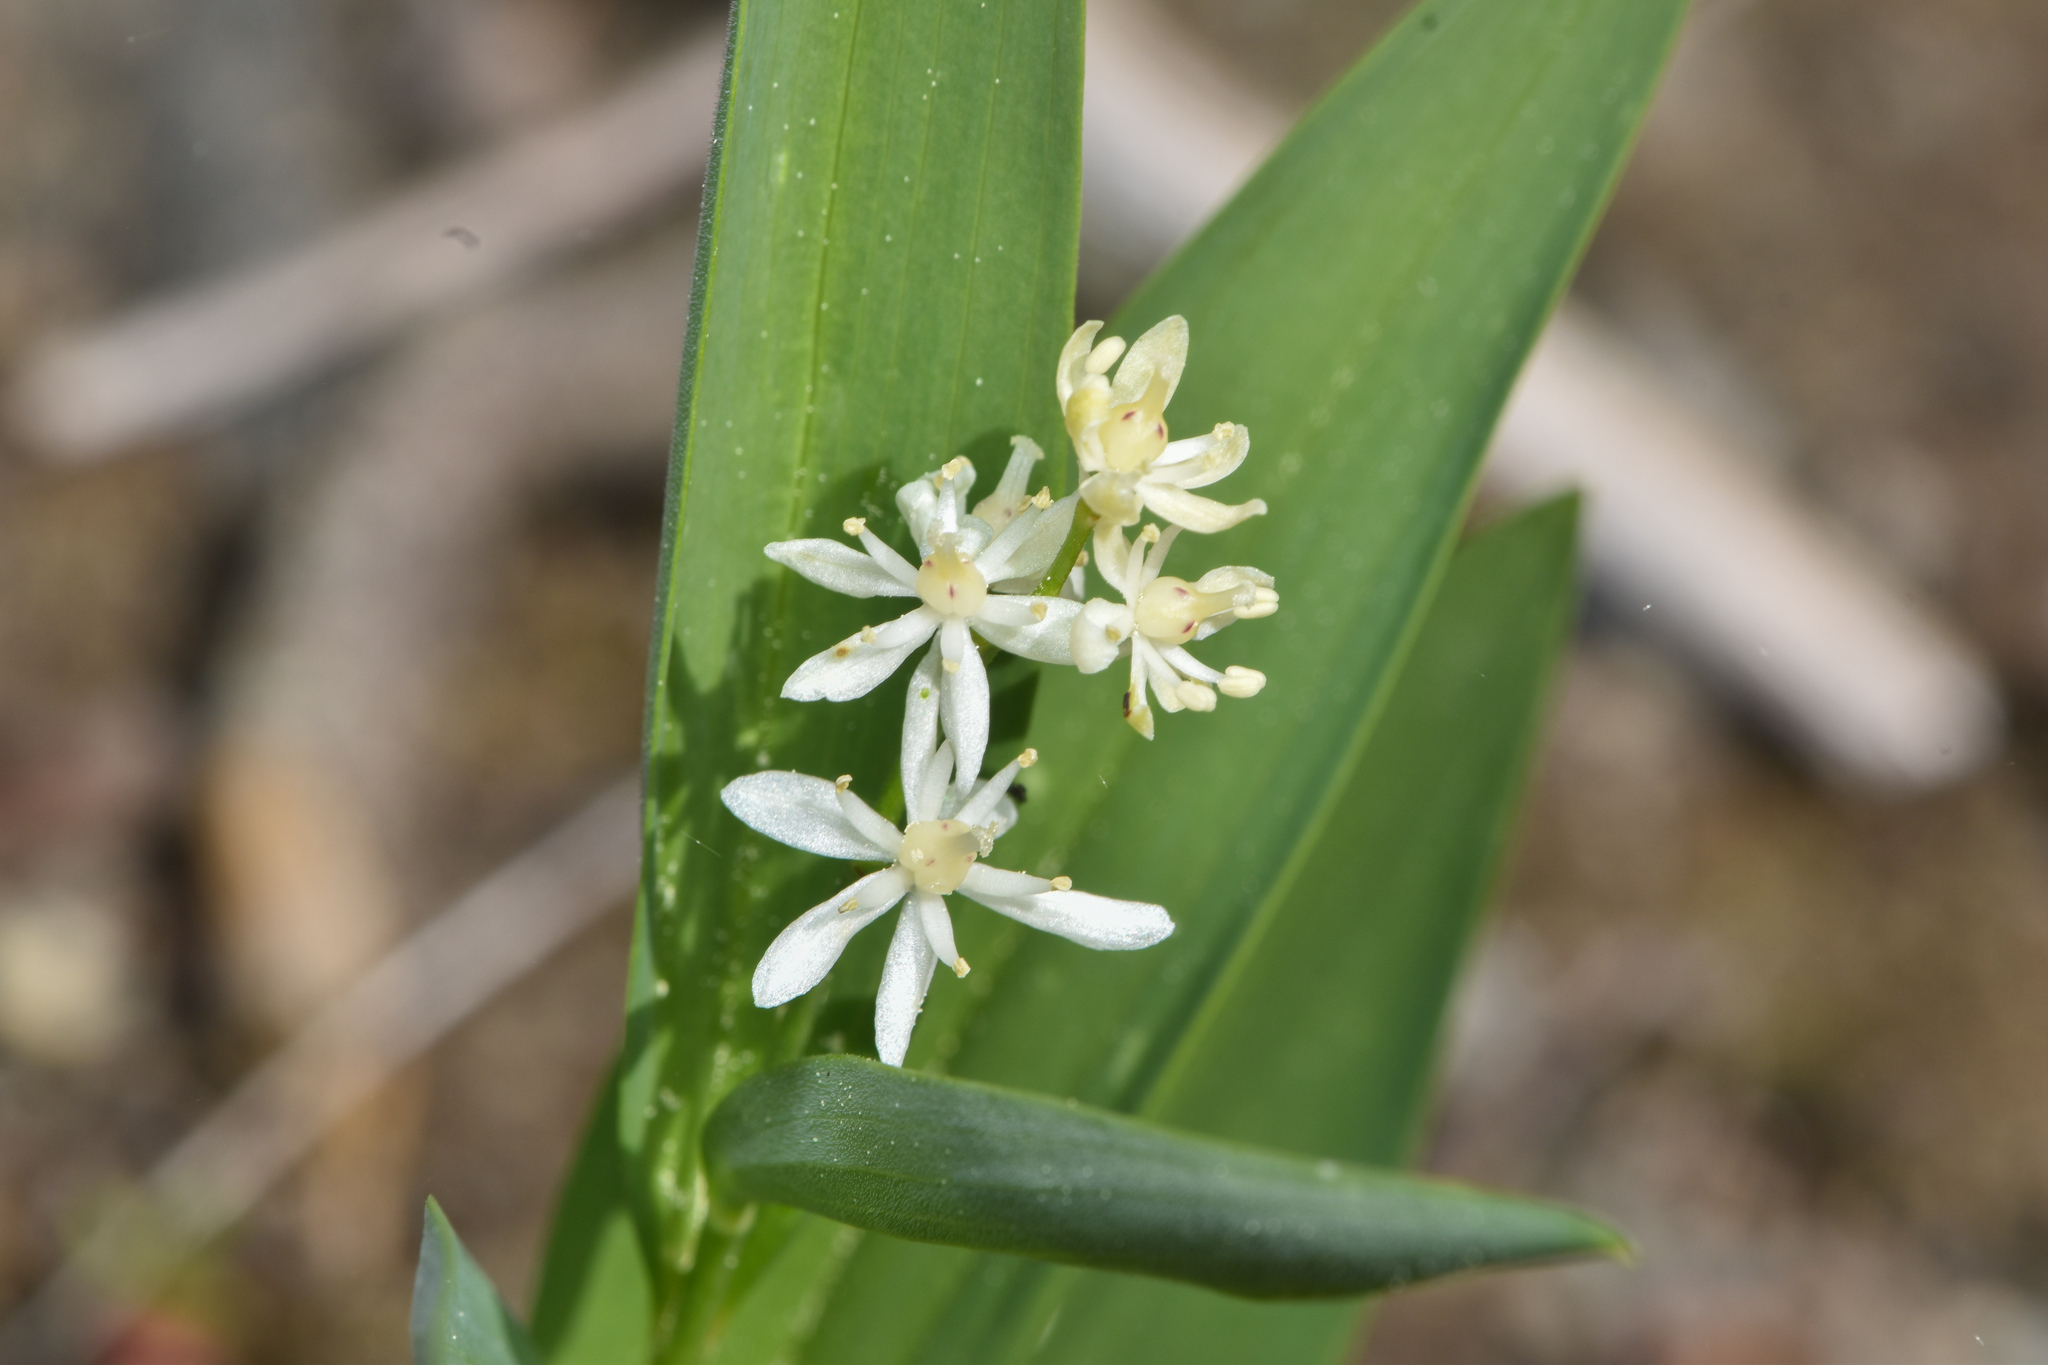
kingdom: Plantae
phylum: Tracheophyta
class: Liliopsida
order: Asparagales
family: Asparagaceae
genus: Maianthemum
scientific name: Maianthemum stellatum
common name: Little false solomon's seal
